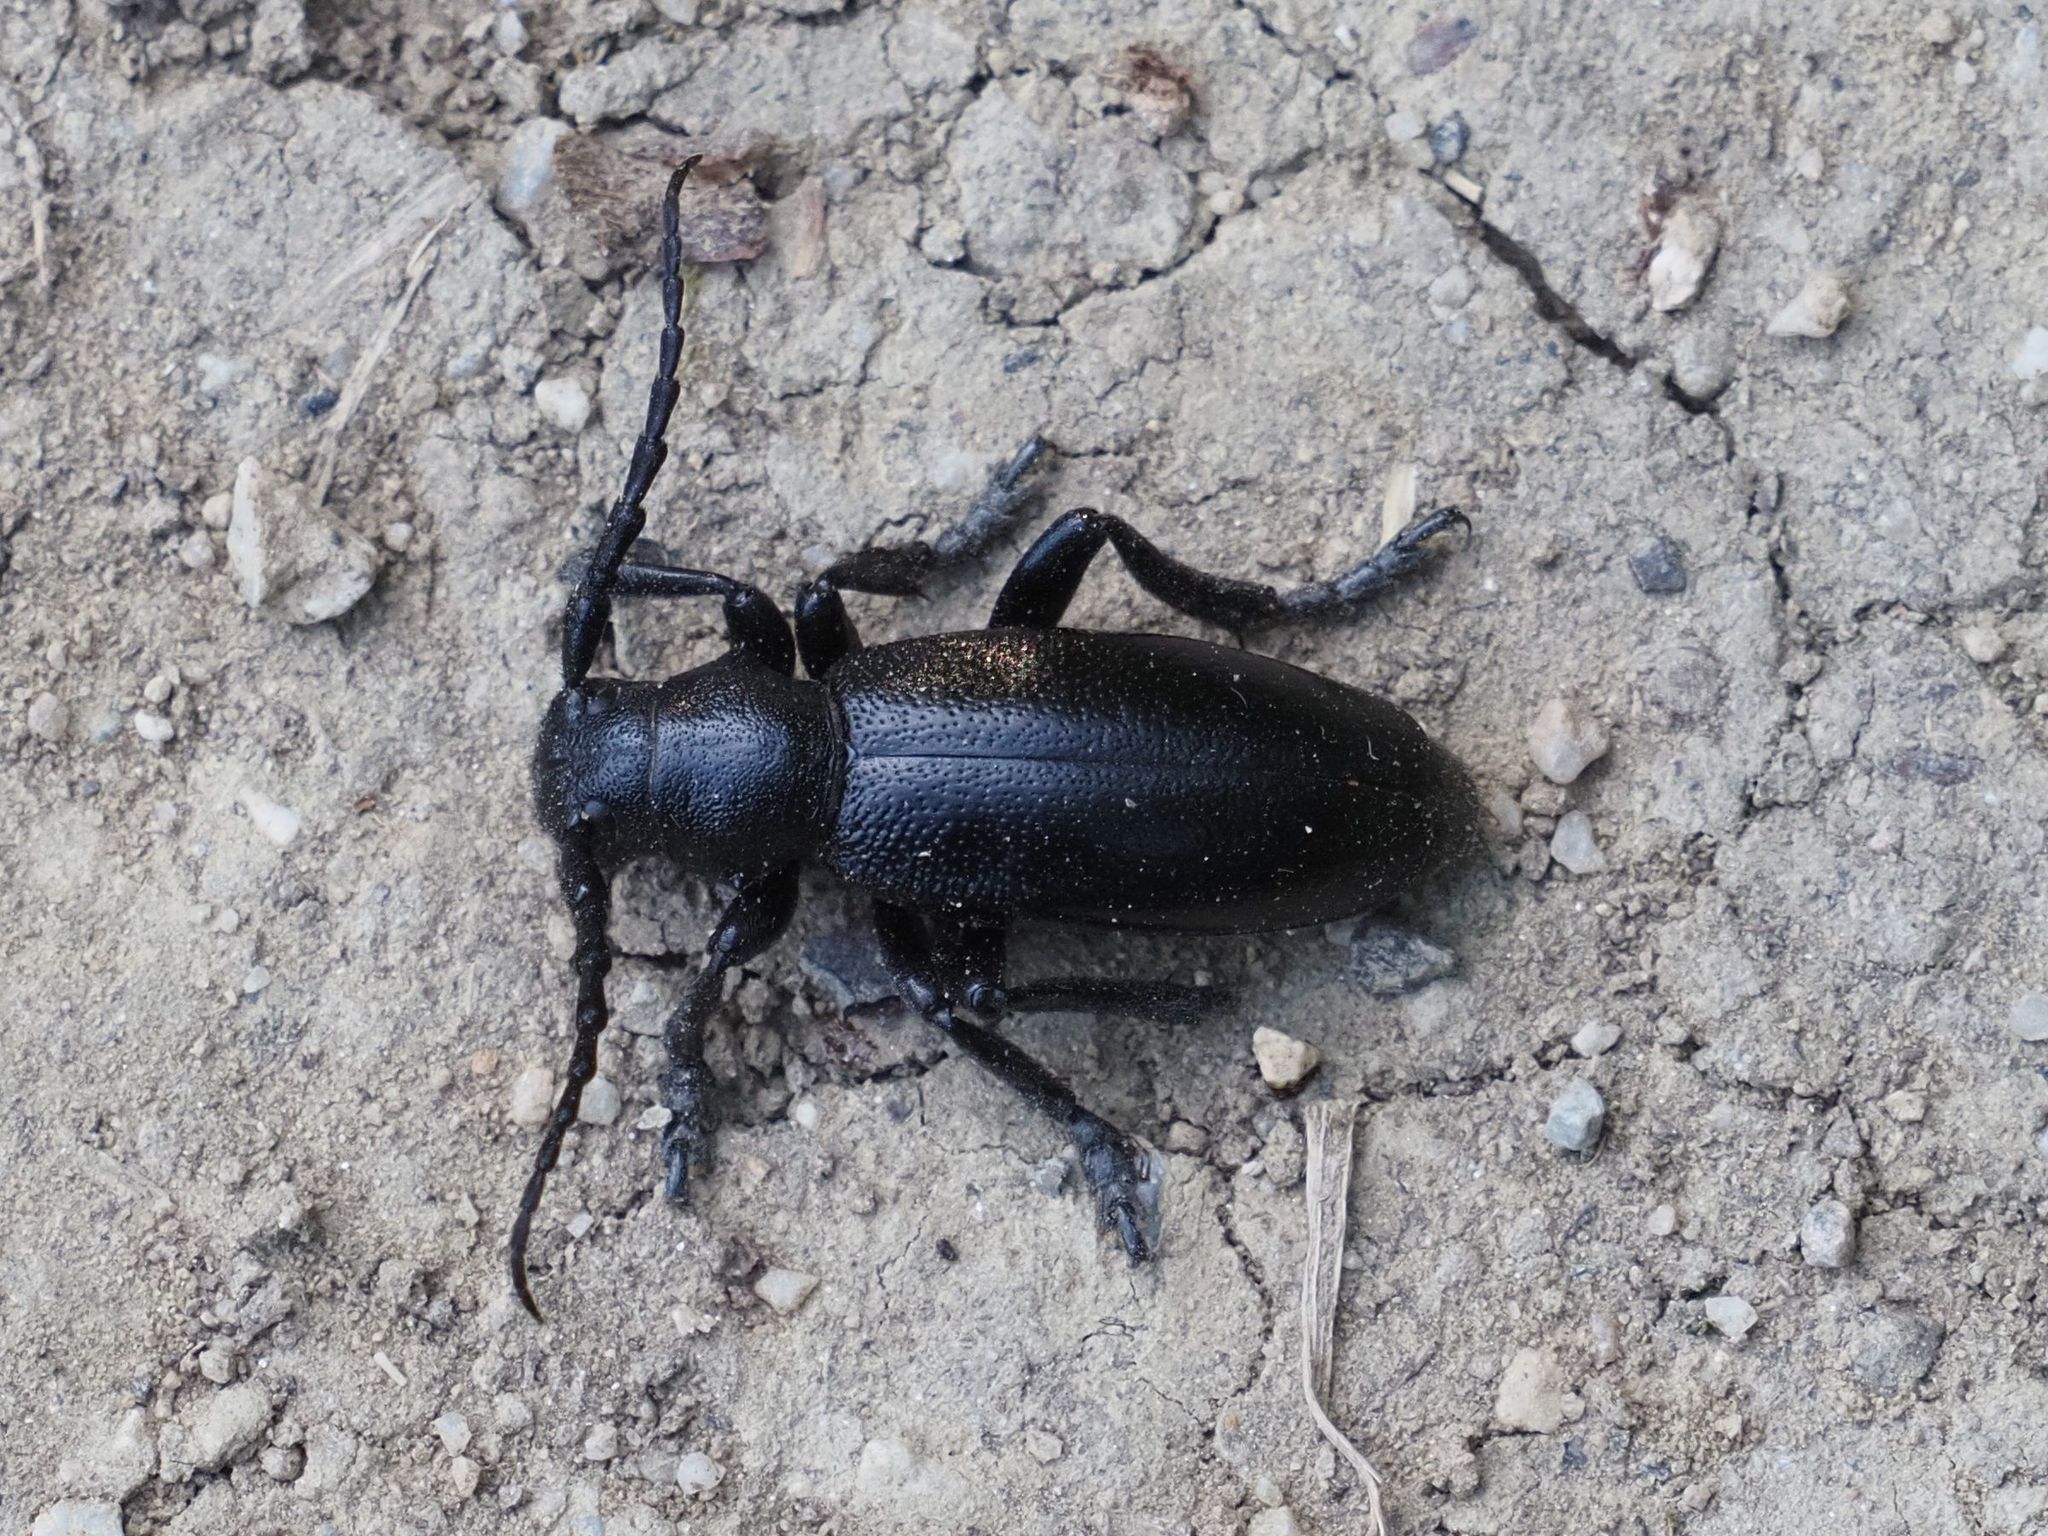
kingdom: Animalia
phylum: Arthropoda
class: Insecta
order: Coleoptera
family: Cerambycidae
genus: Dorcadion
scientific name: Dorcadion aethiops
